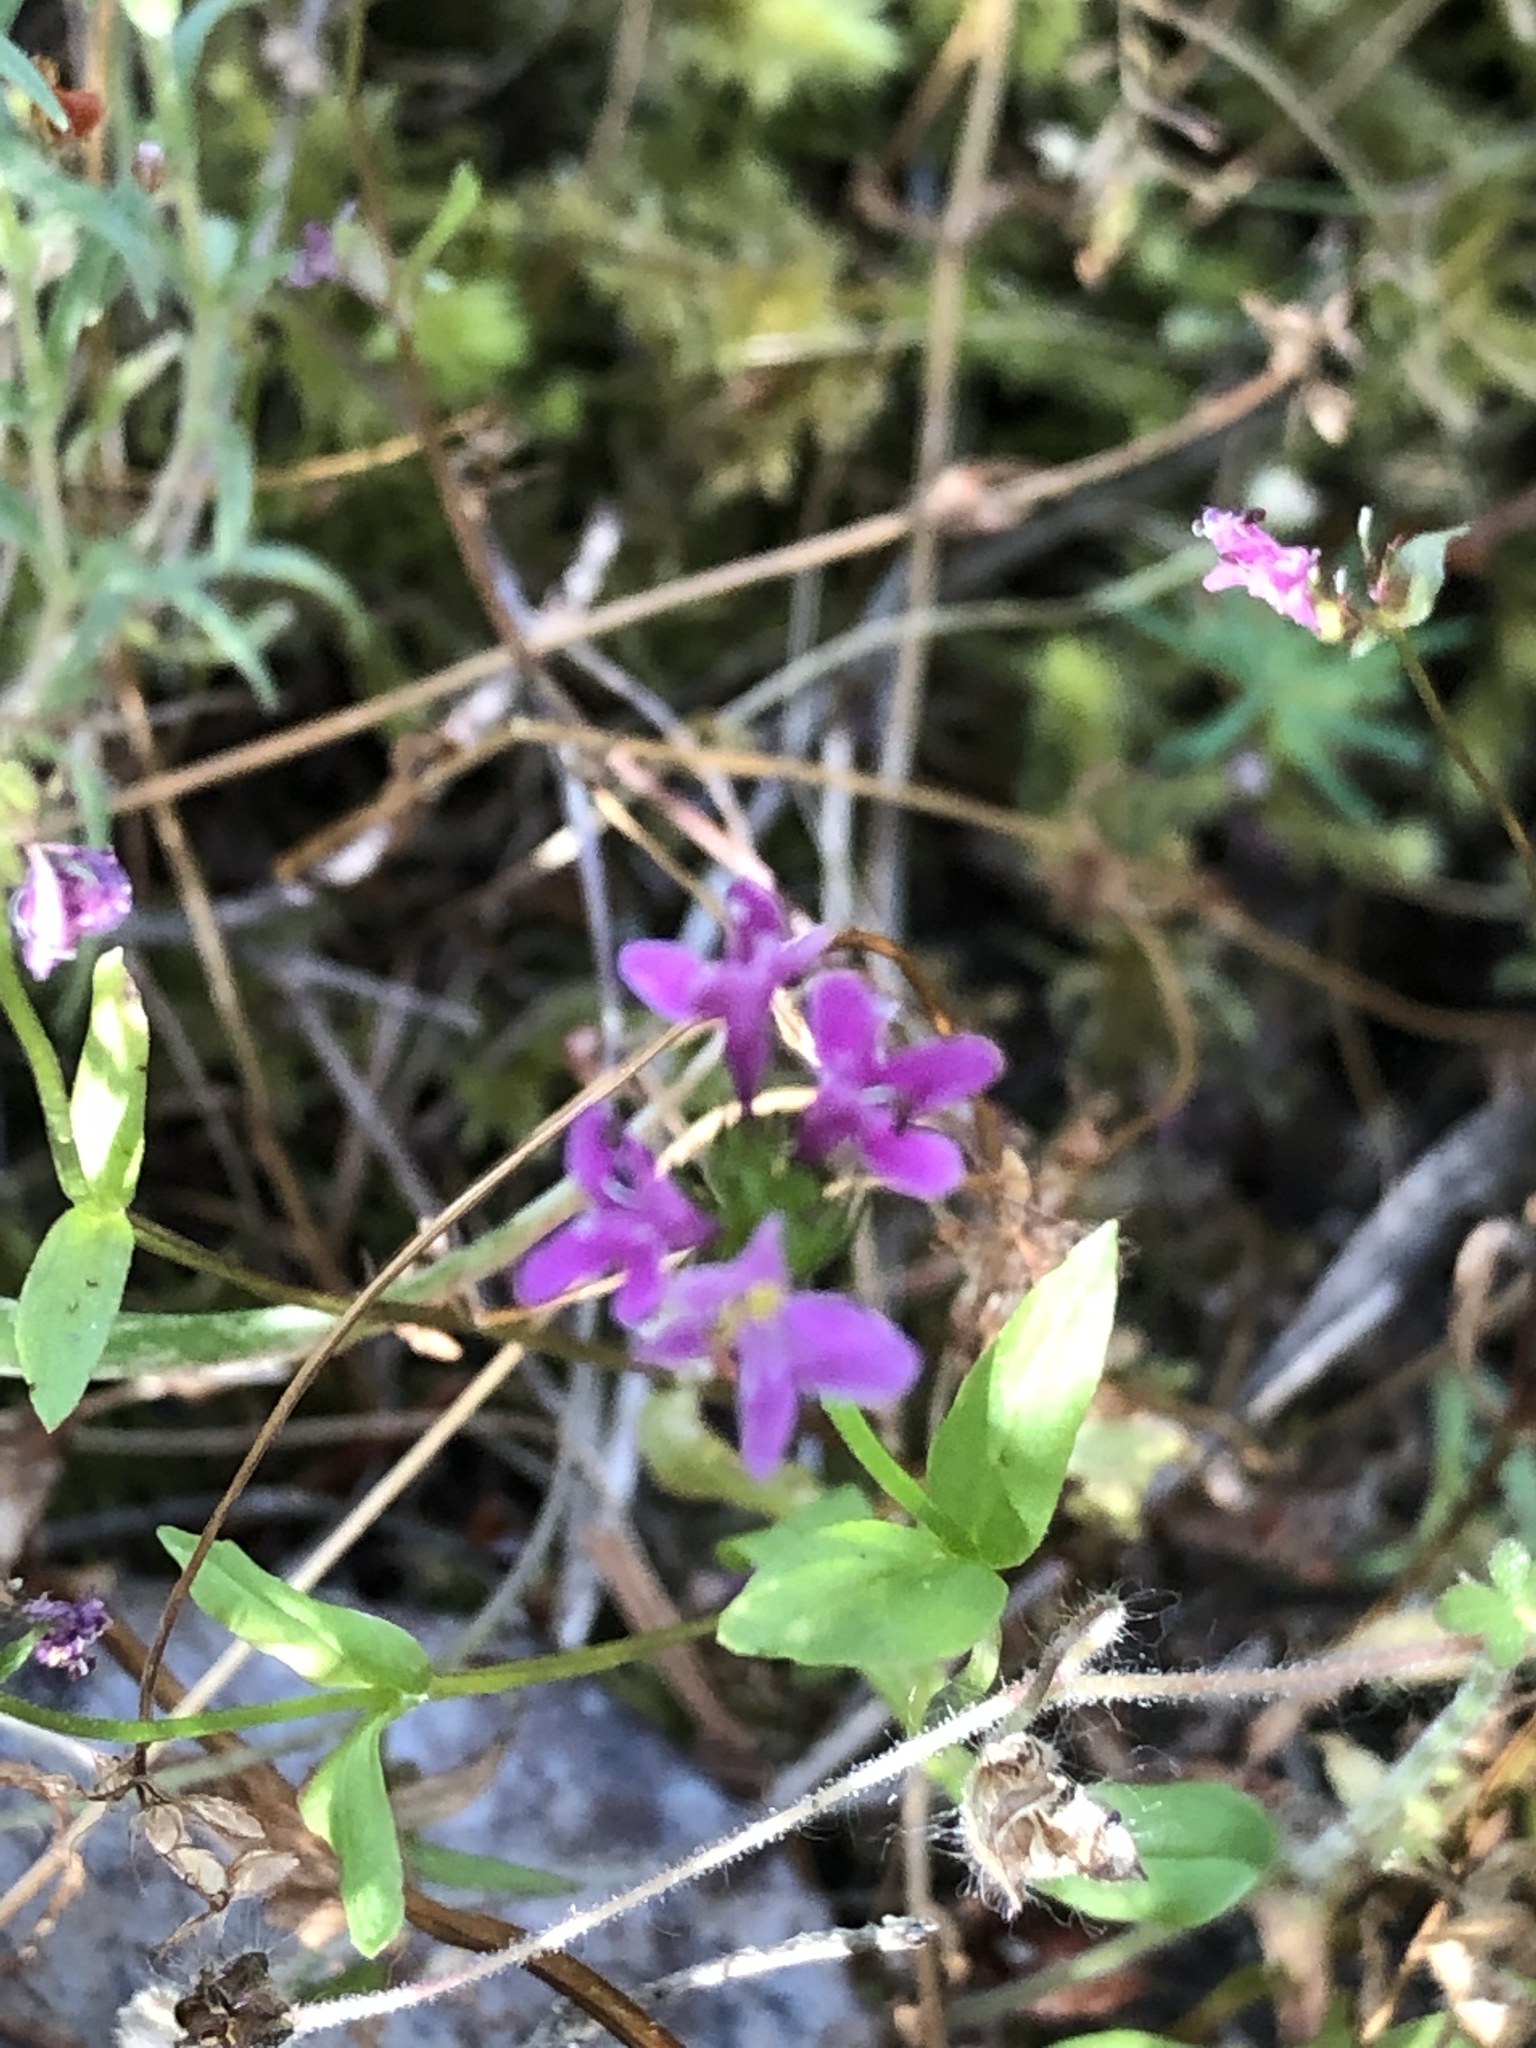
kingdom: Plantae
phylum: Tracheophyta
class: Magnoliopsida
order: Dipsacales
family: Caprifoliaceae
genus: Plectritis
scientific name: Plectritis congesta
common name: Pink plectritis
